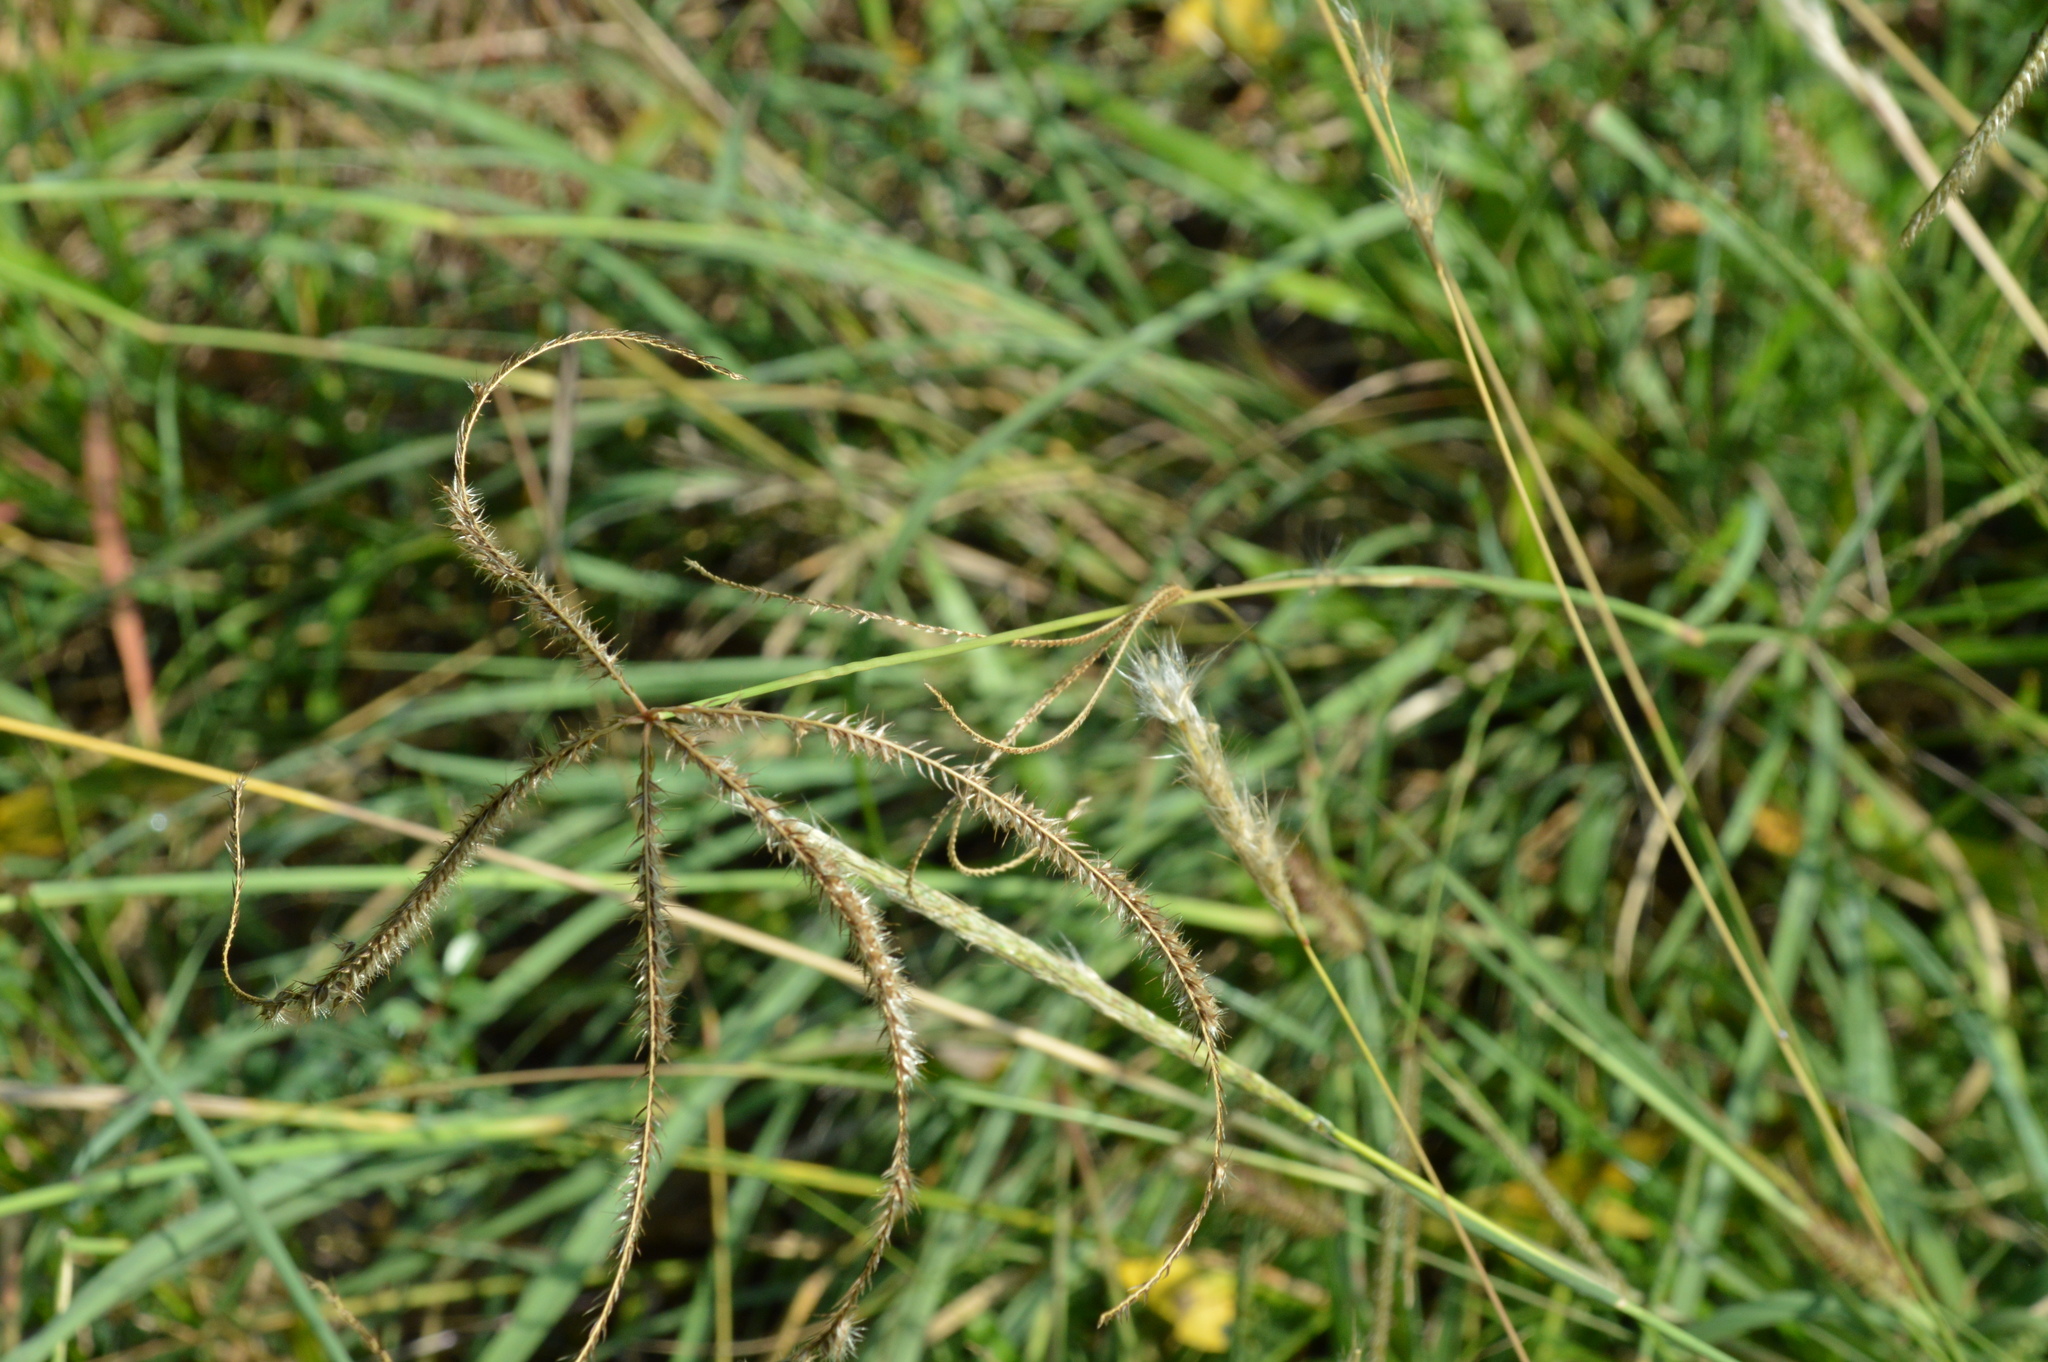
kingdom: Plantae
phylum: Tracheophyta
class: Liliopsida
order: Poales
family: Poaceae
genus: Stapfochloa
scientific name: Stapfochloa canterae
